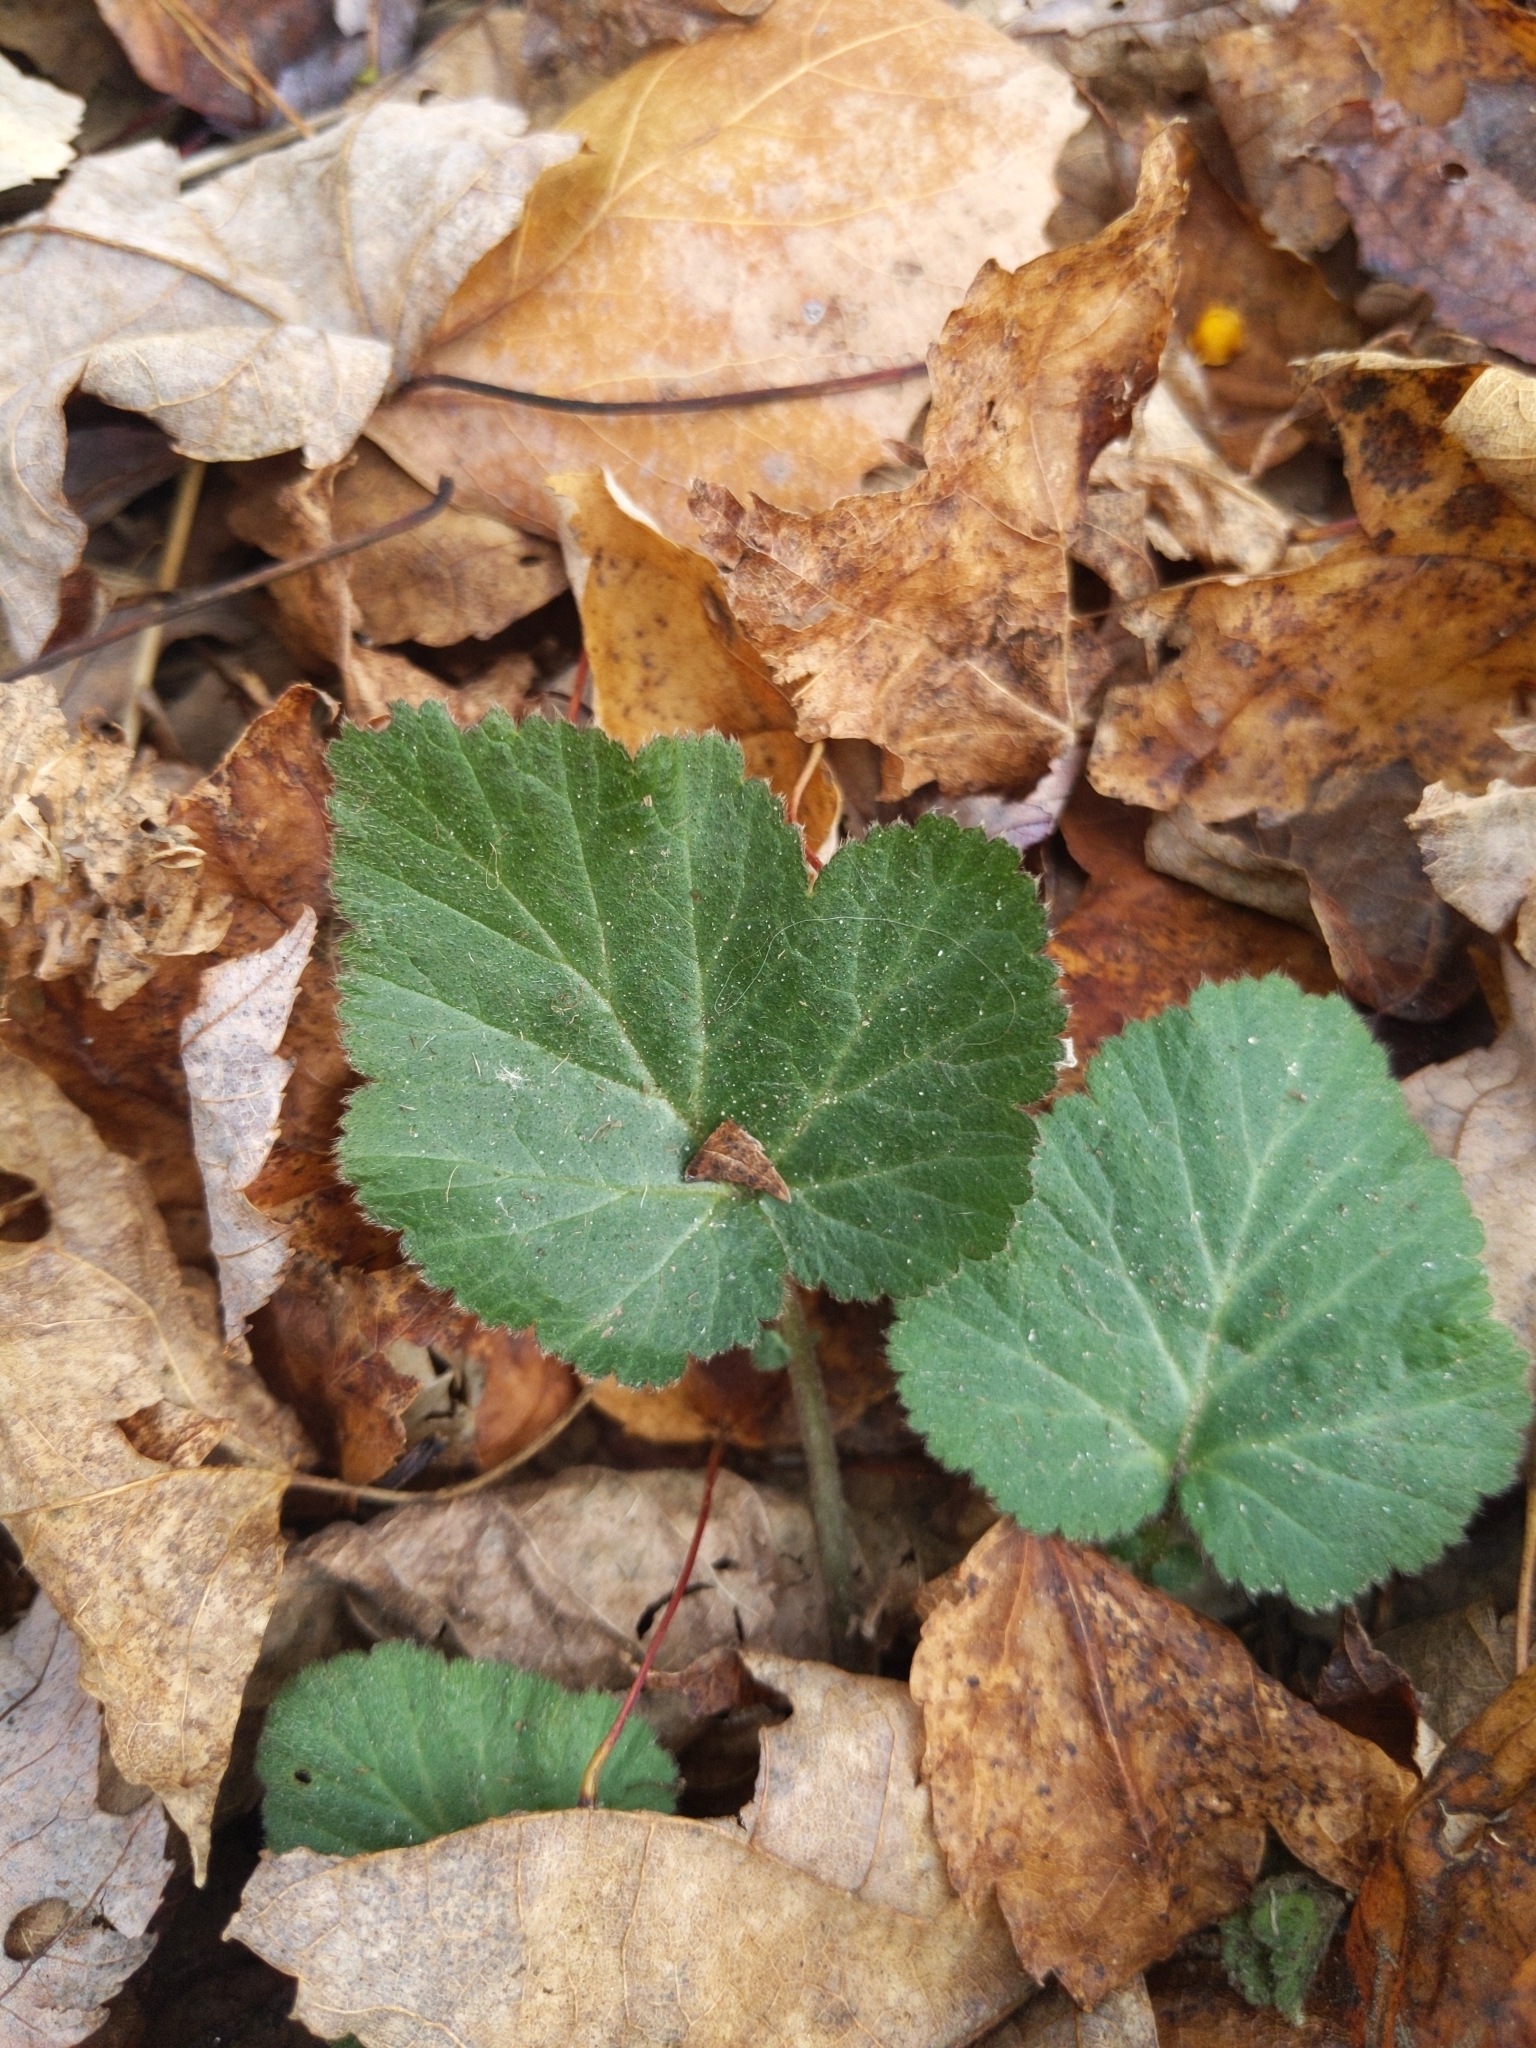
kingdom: Plantae
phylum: Tracheophyta
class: Magnoliopsida
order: Rosales
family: Rosaceae
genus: Geum
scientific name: Geum canadense
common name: White avens
